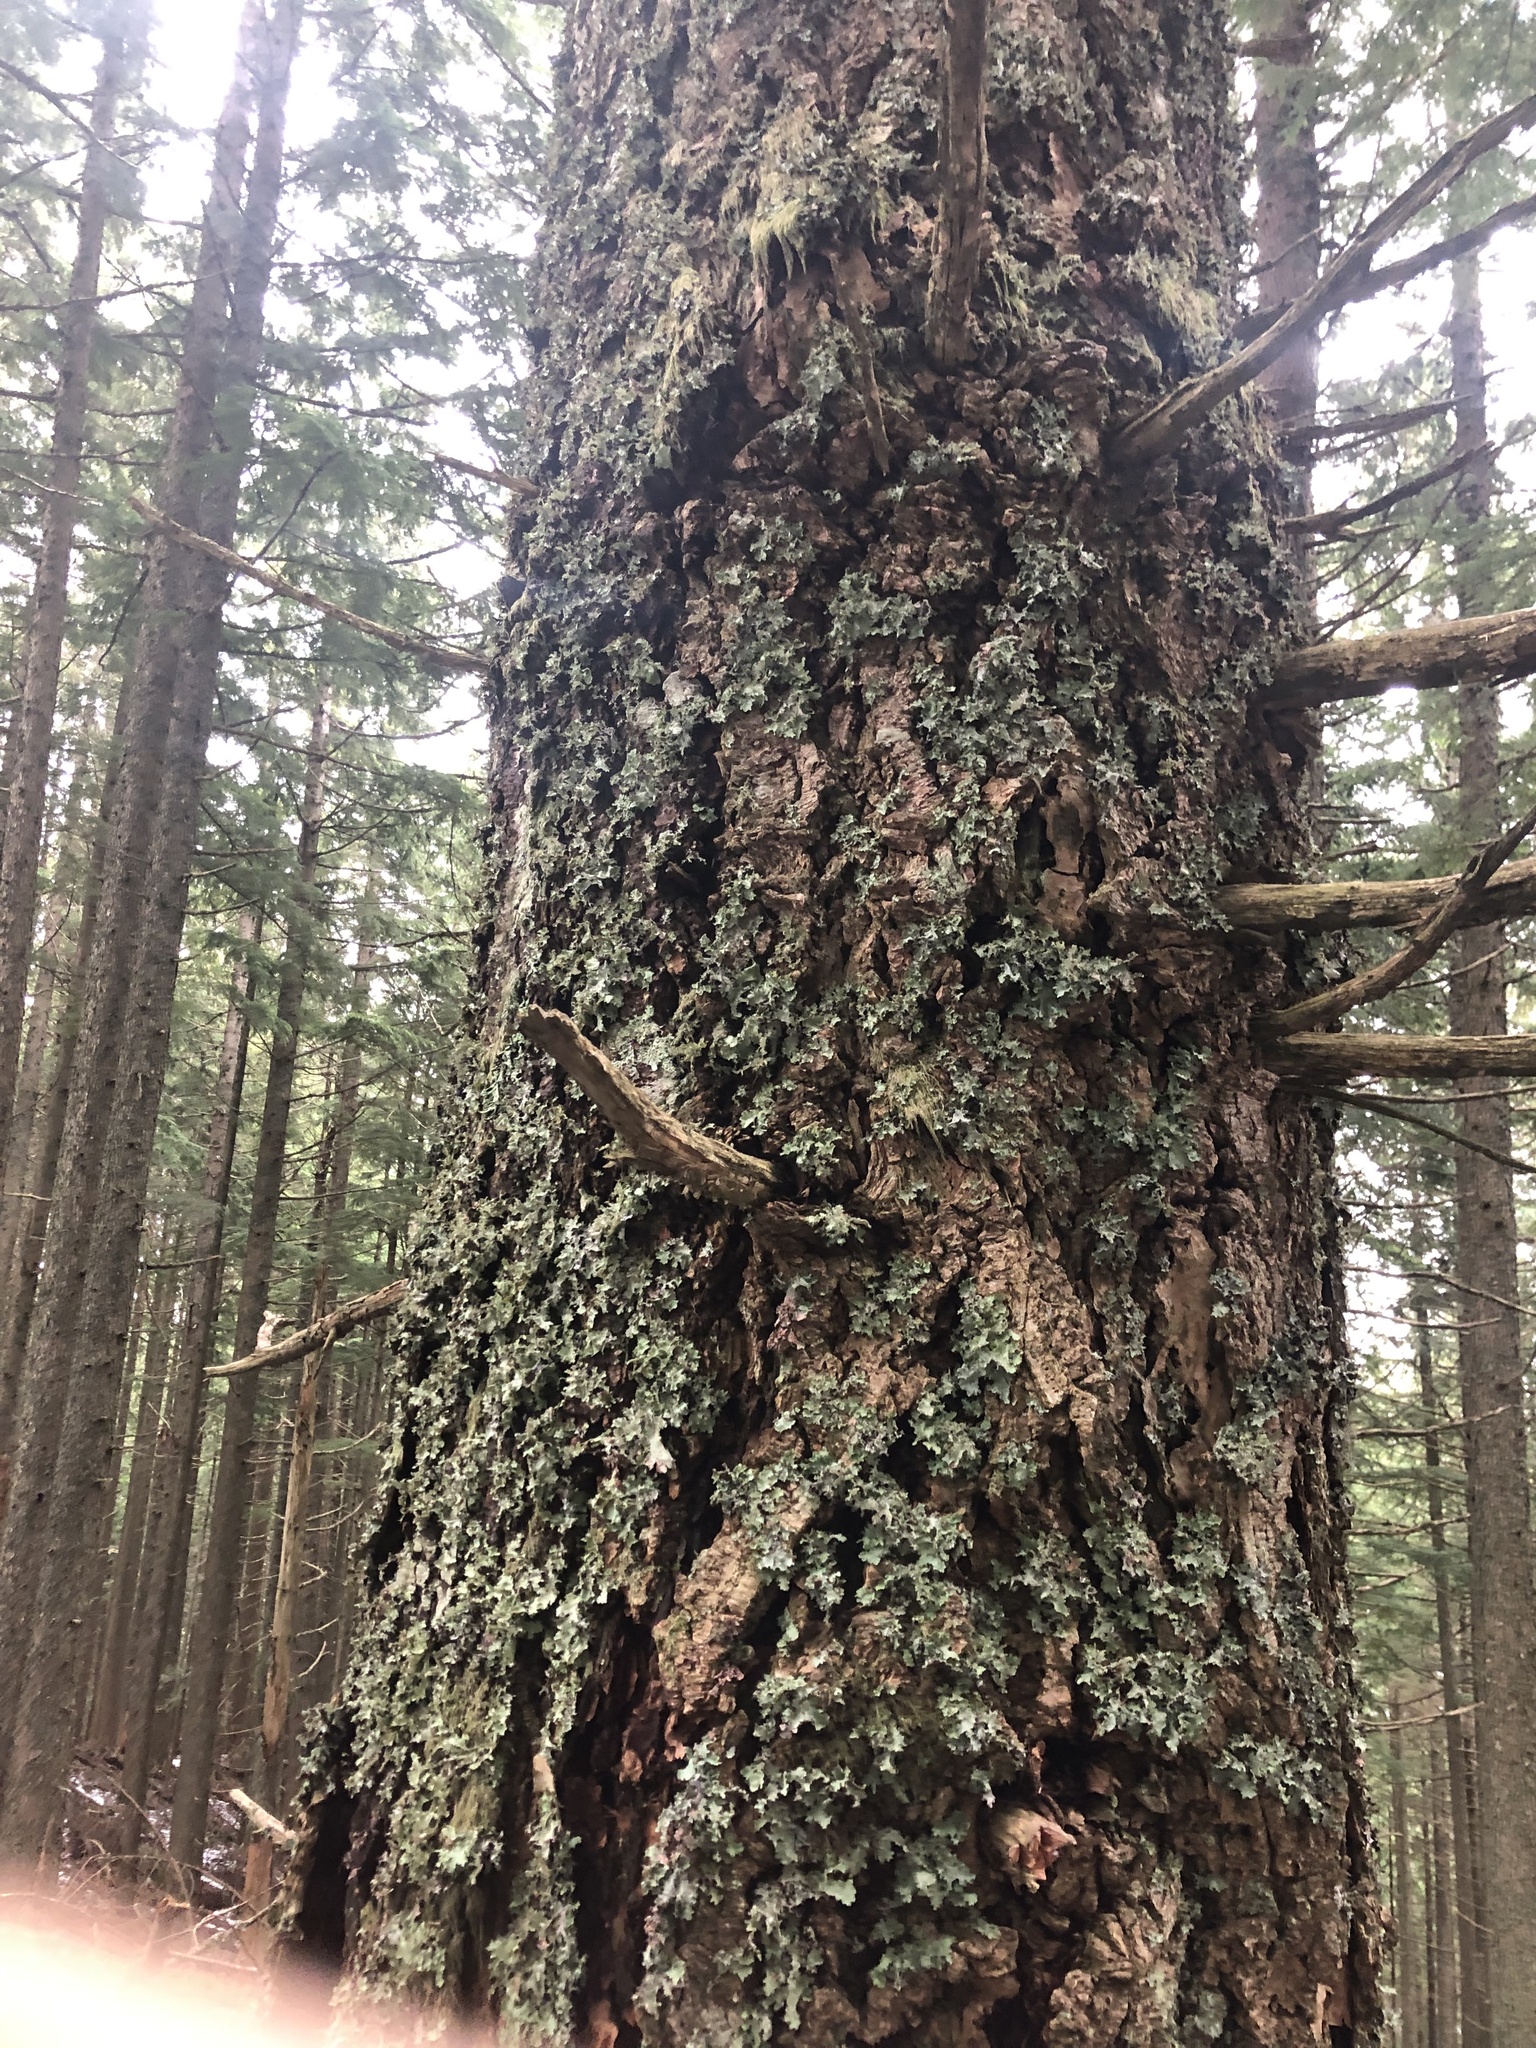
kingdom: Plantae
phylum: Tracheophyta
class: Pinopsida
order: Pinales
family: Pinaceae
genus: Pseudotsuga
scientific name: Pseudotsuga menziesii
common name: Douglas fir
